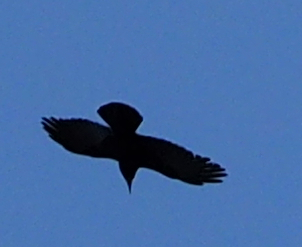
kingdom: Animalia
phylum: Chordata
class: Aves
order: Passeriformes
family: Corvidae
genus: Corvus
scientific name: Corvus frugilegus
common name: Rook
